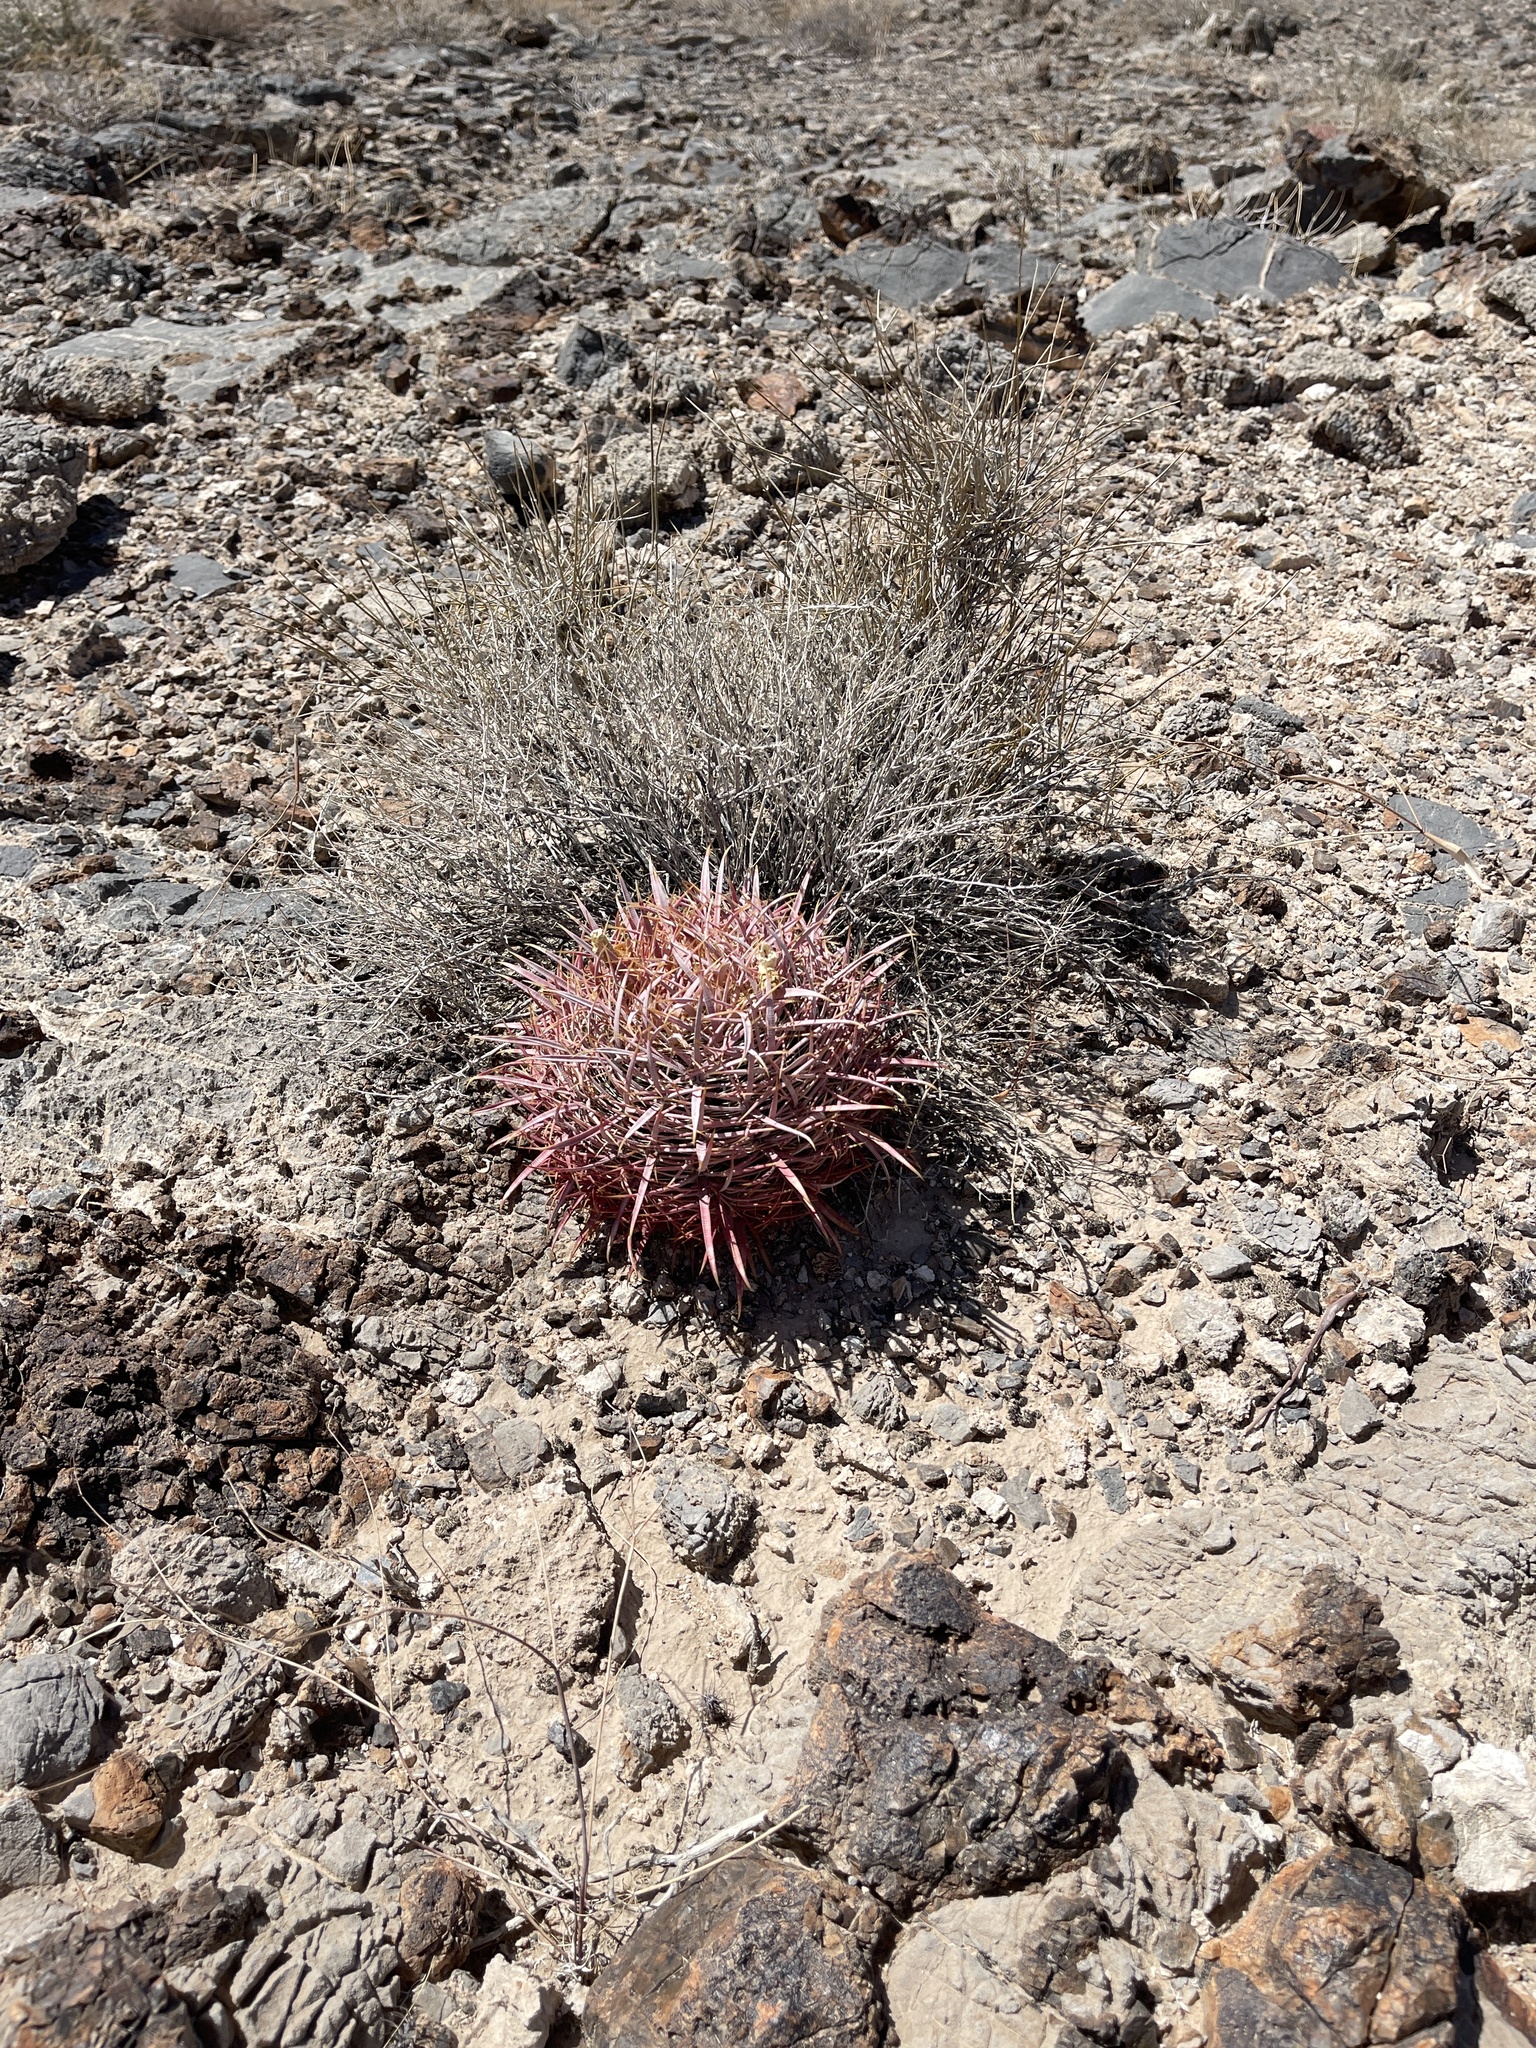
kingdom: Plantae
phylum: Tracheophyta
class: Magnoliopsida
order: Caryophyllales
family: Cactaceae
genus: Ferocactus
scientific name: Ferocactus cylindraceus
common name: California barrel cactus
